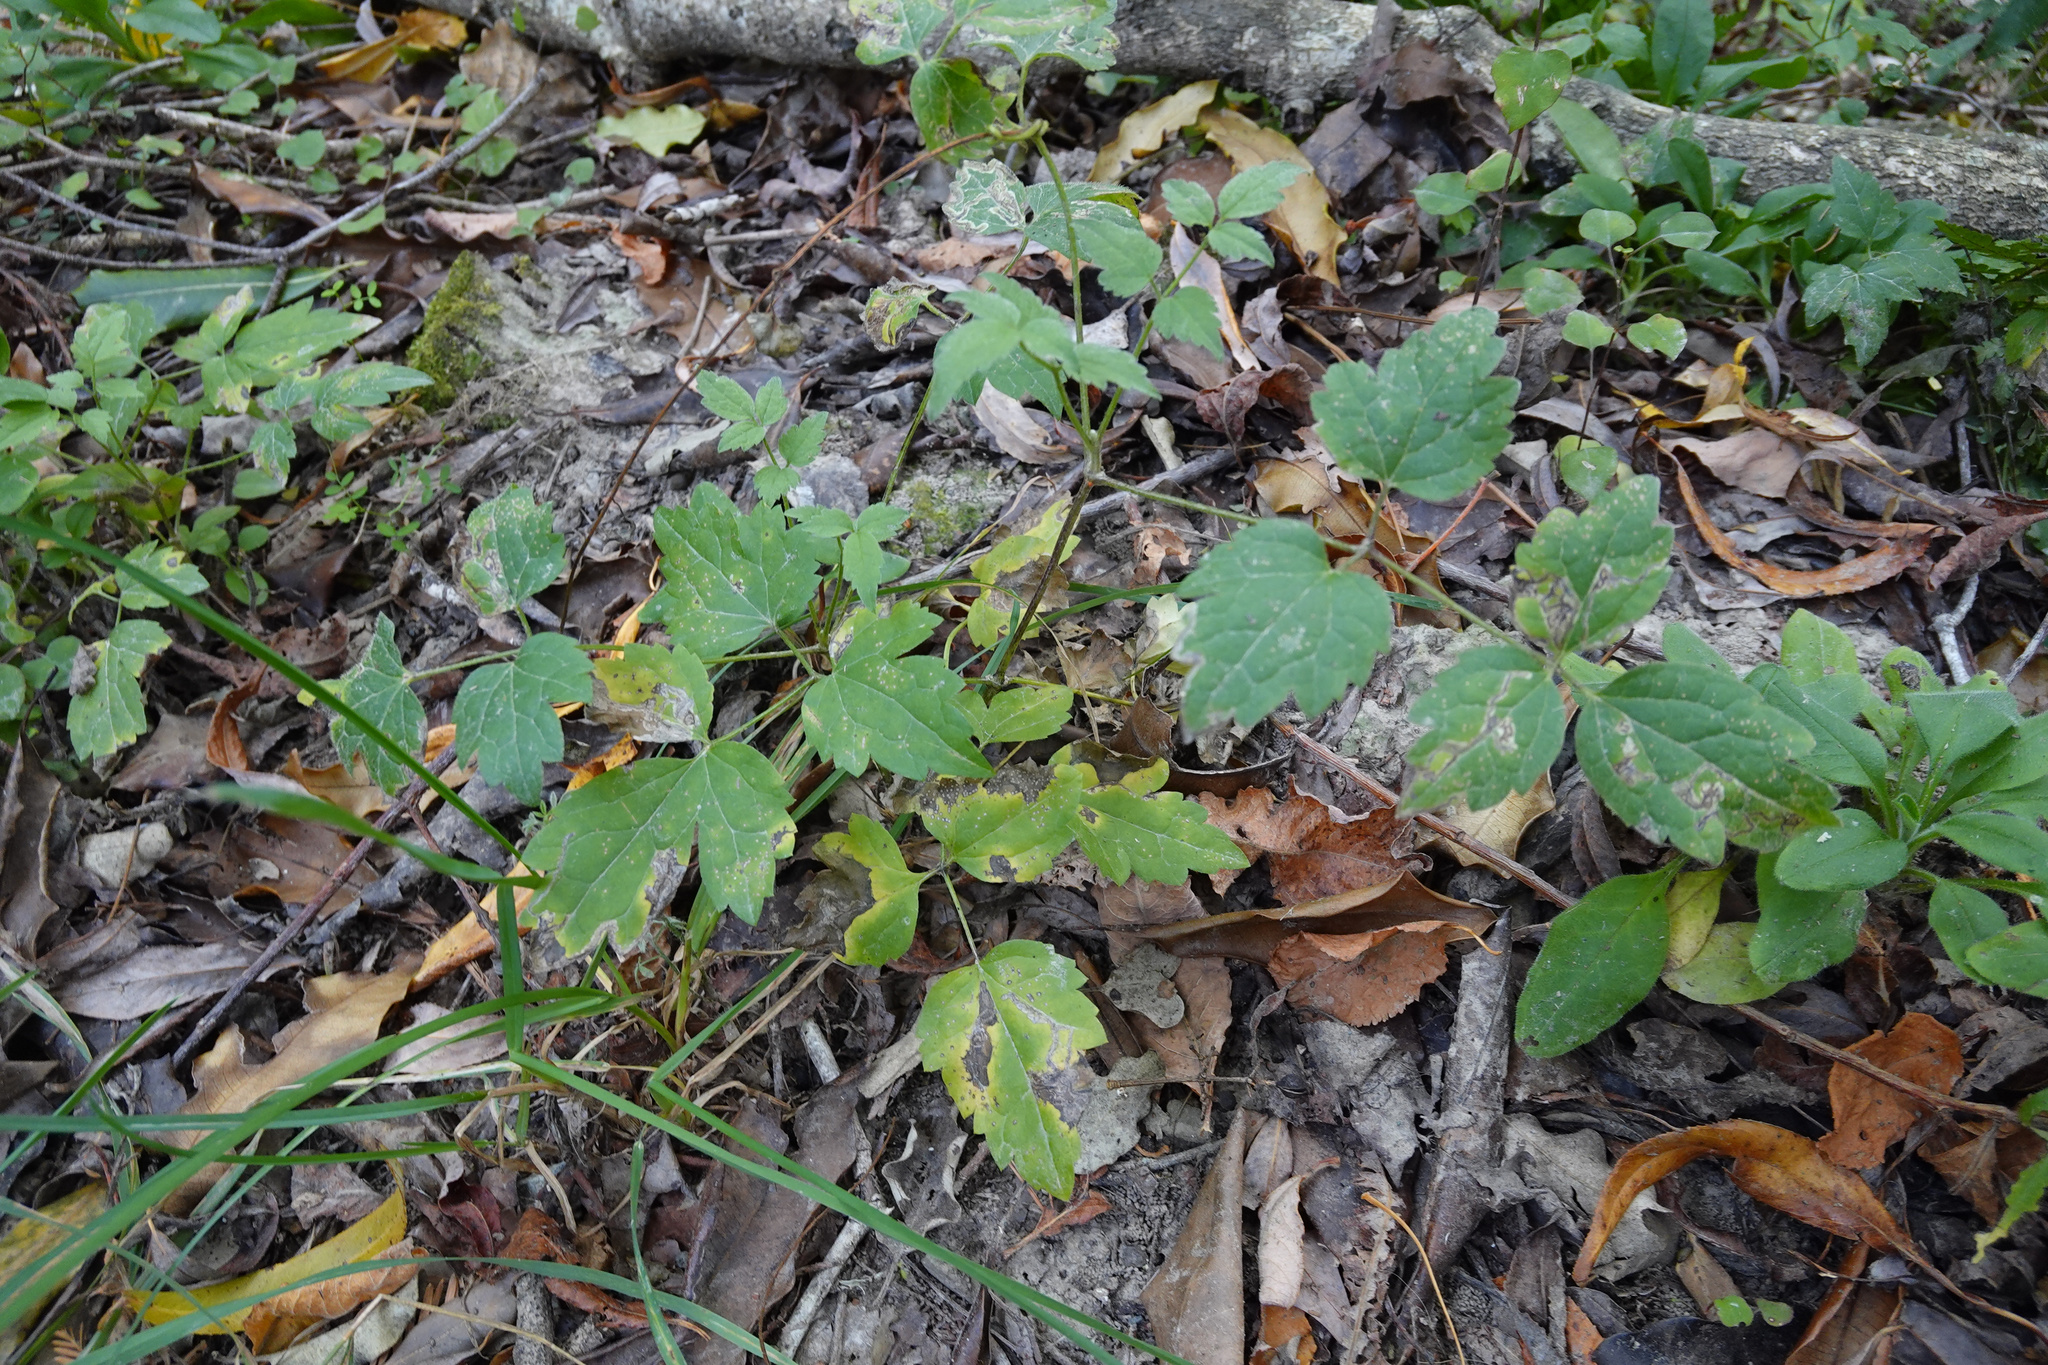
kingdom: Plantae
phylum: Tracheophyta
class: Magnoliopsida
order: Ranunculales
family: Ranunculaceae
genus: Clematis
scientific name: Clematis vitalba
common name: Evergreen clematis
